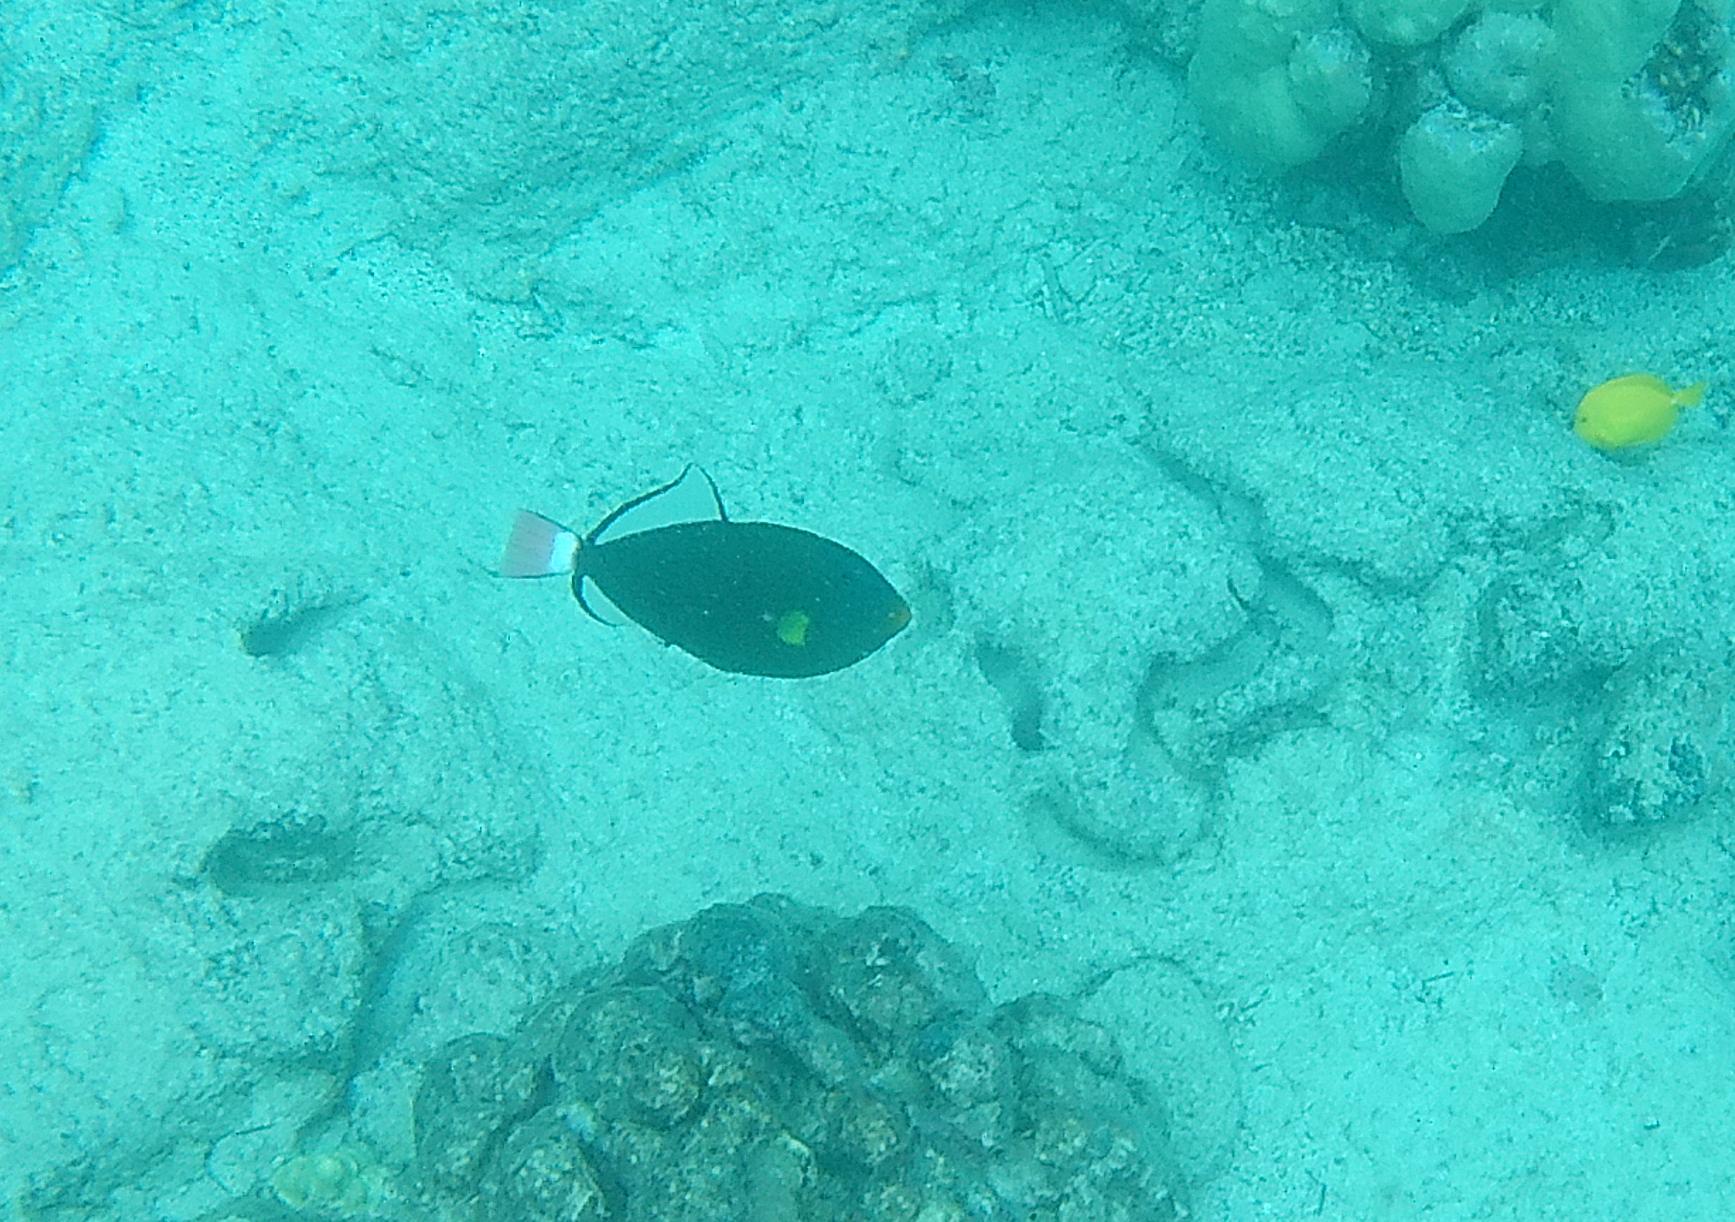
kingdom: Animalia
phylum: Chordata
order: Tetraodontiformes
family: Balistidae
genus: Melichthys
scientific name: Melichthys vidua
